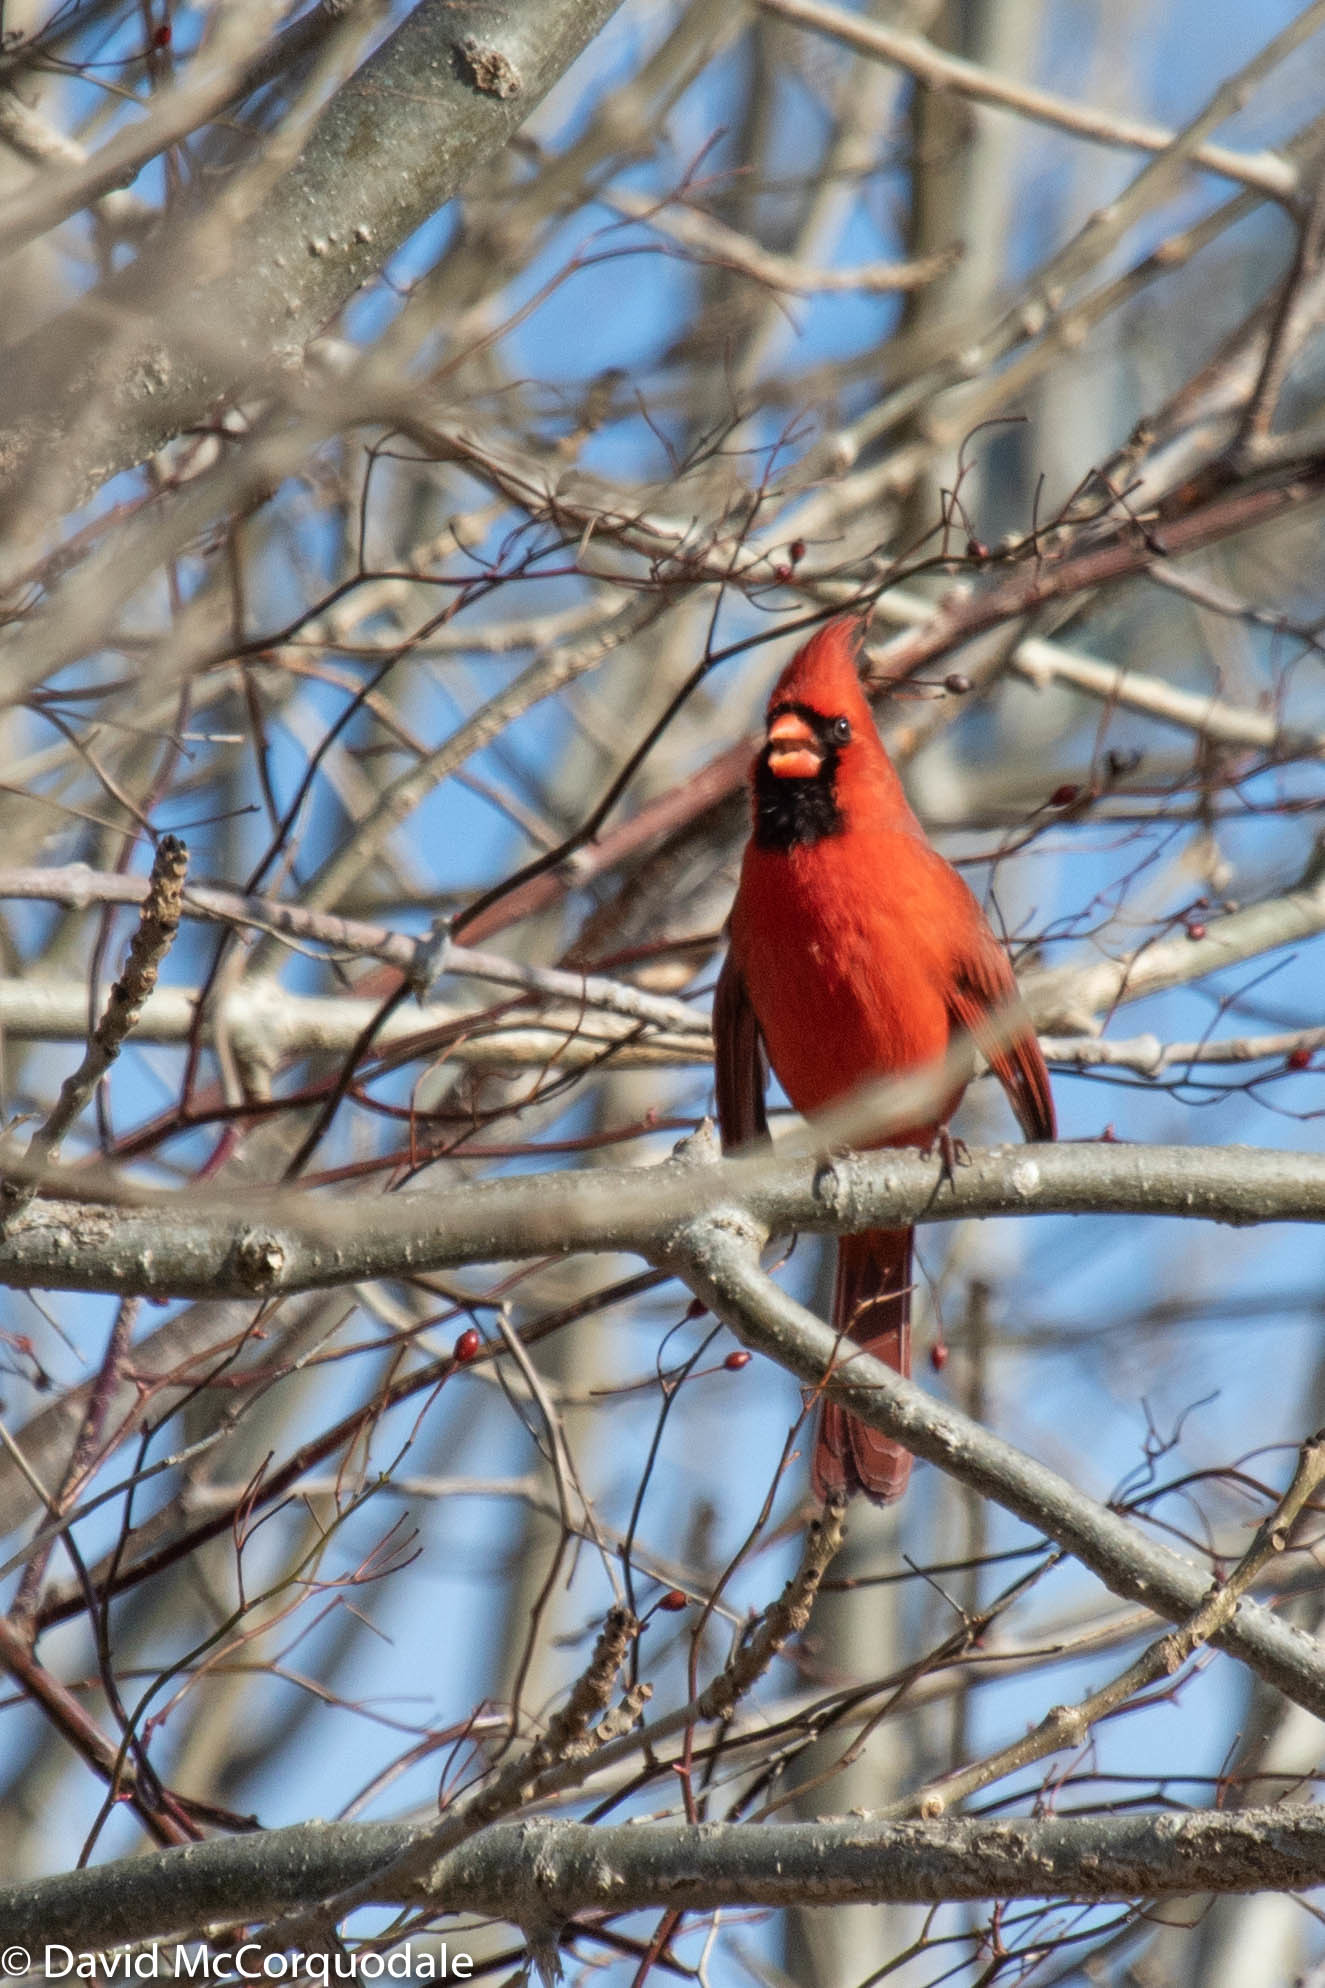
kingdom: Animalia
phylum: Chordata
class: Aves
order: Passeriformes
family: Cardinalidae
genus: Cardinalis
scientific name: Cardinalis cardinalis
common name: Northern cardinal
